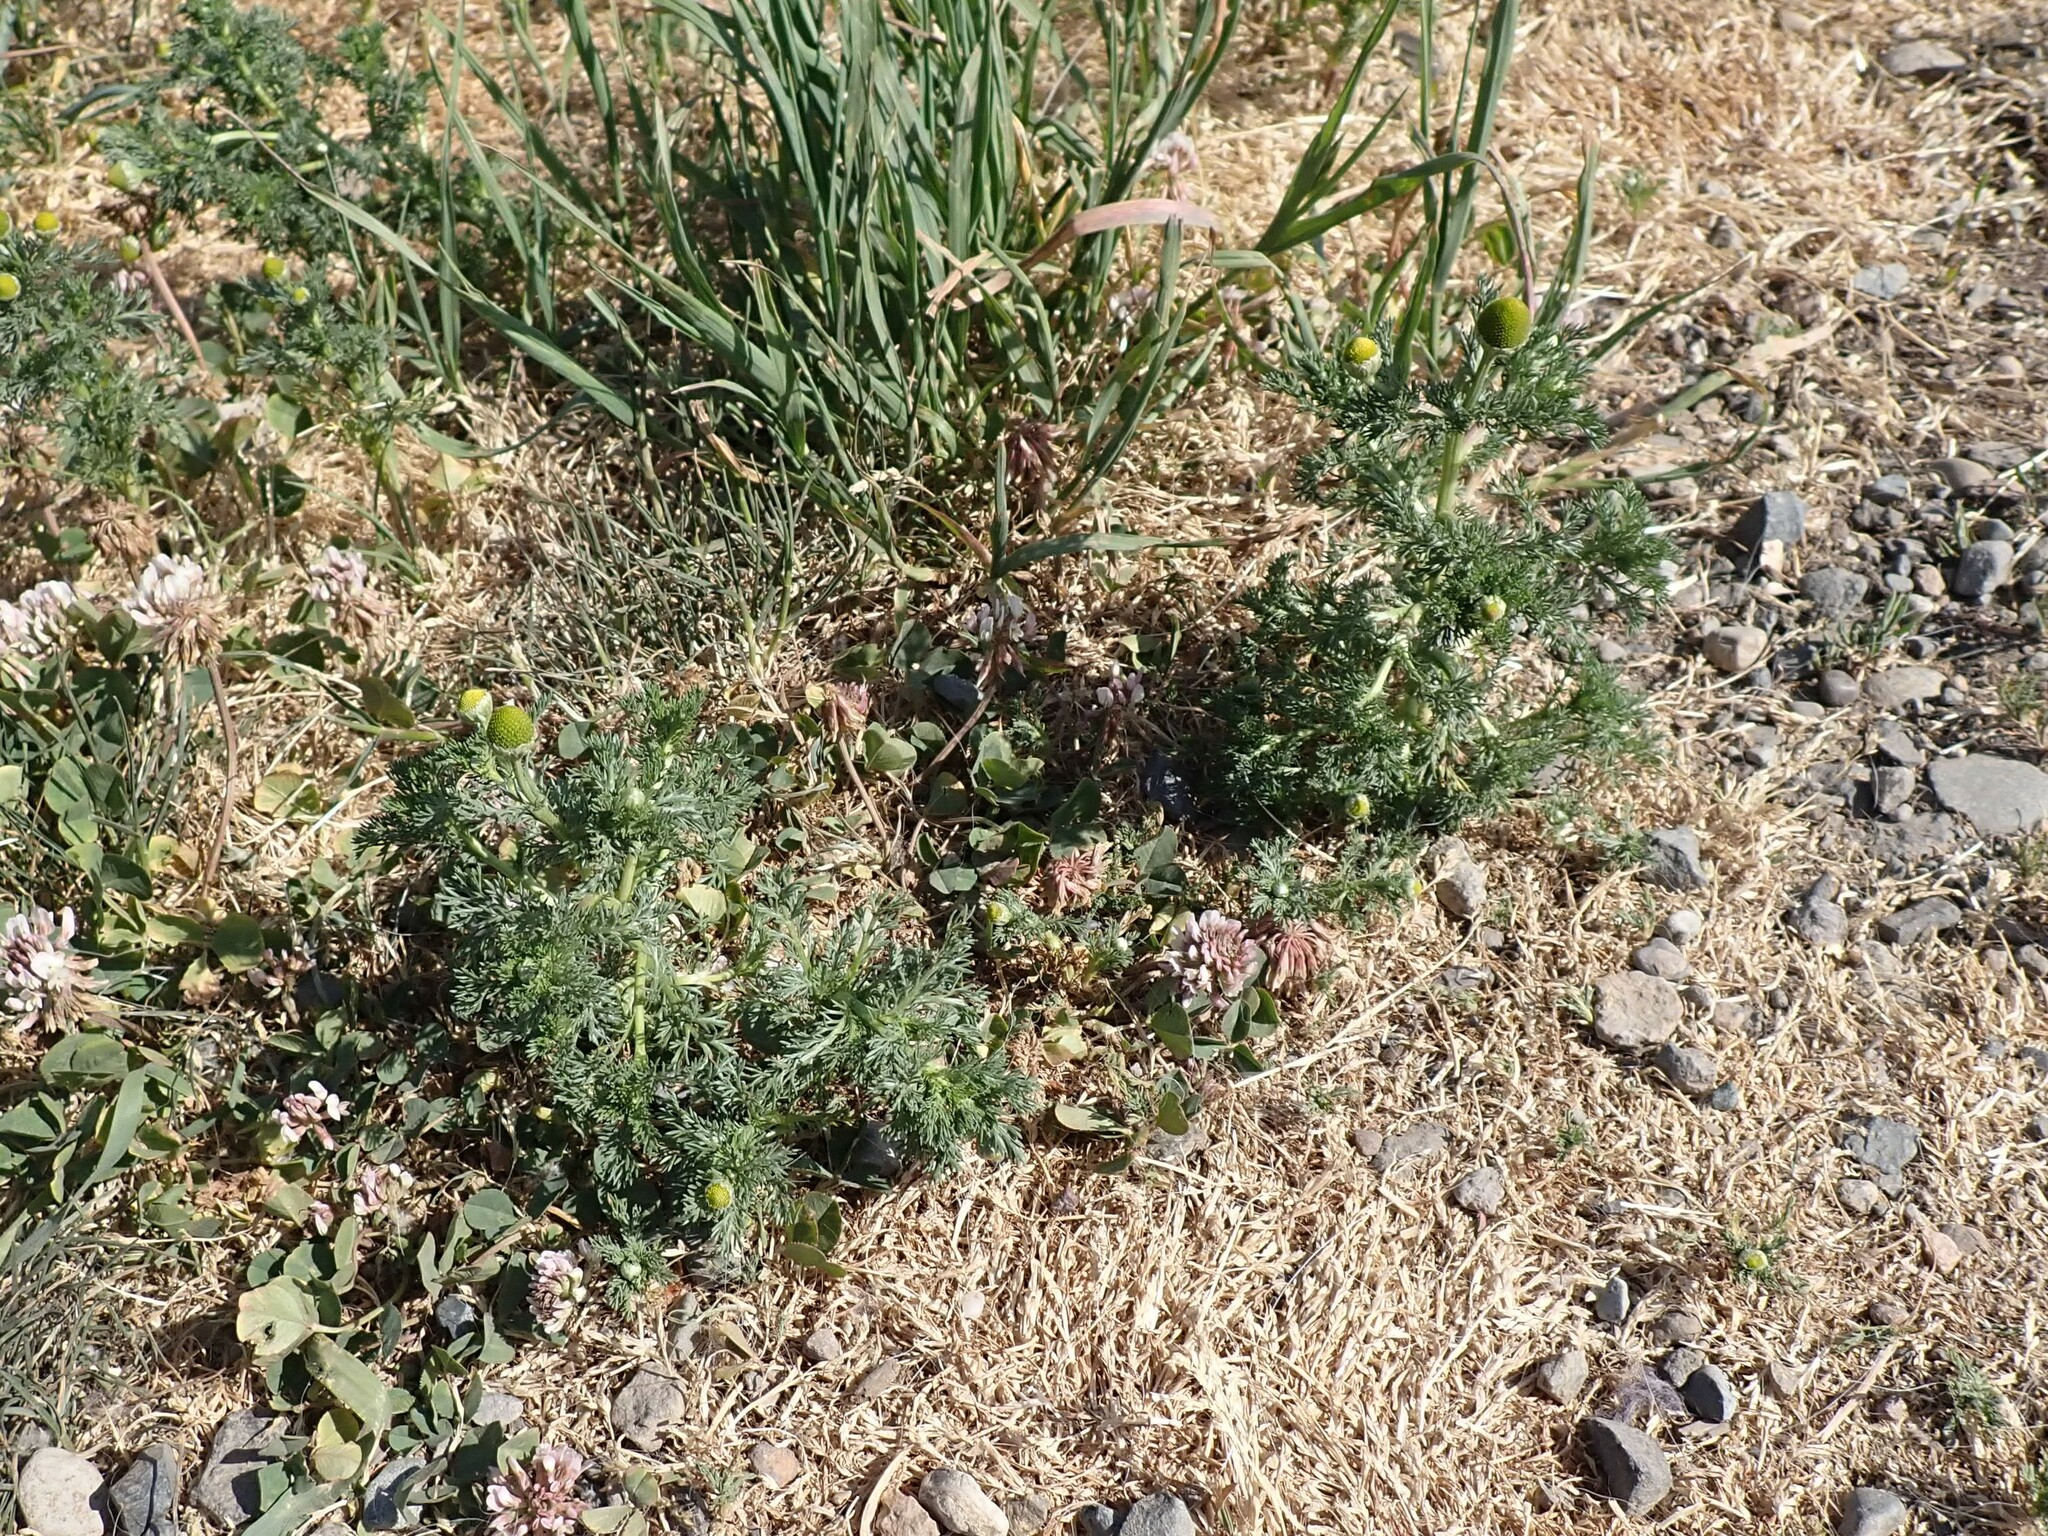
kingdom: Plantae
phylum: Tracheophyta
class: Magnoliopsida
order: Asterales
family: Asteraceae
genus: Matricaria
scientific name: Matricaria discoidea
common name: Disc mayweed
